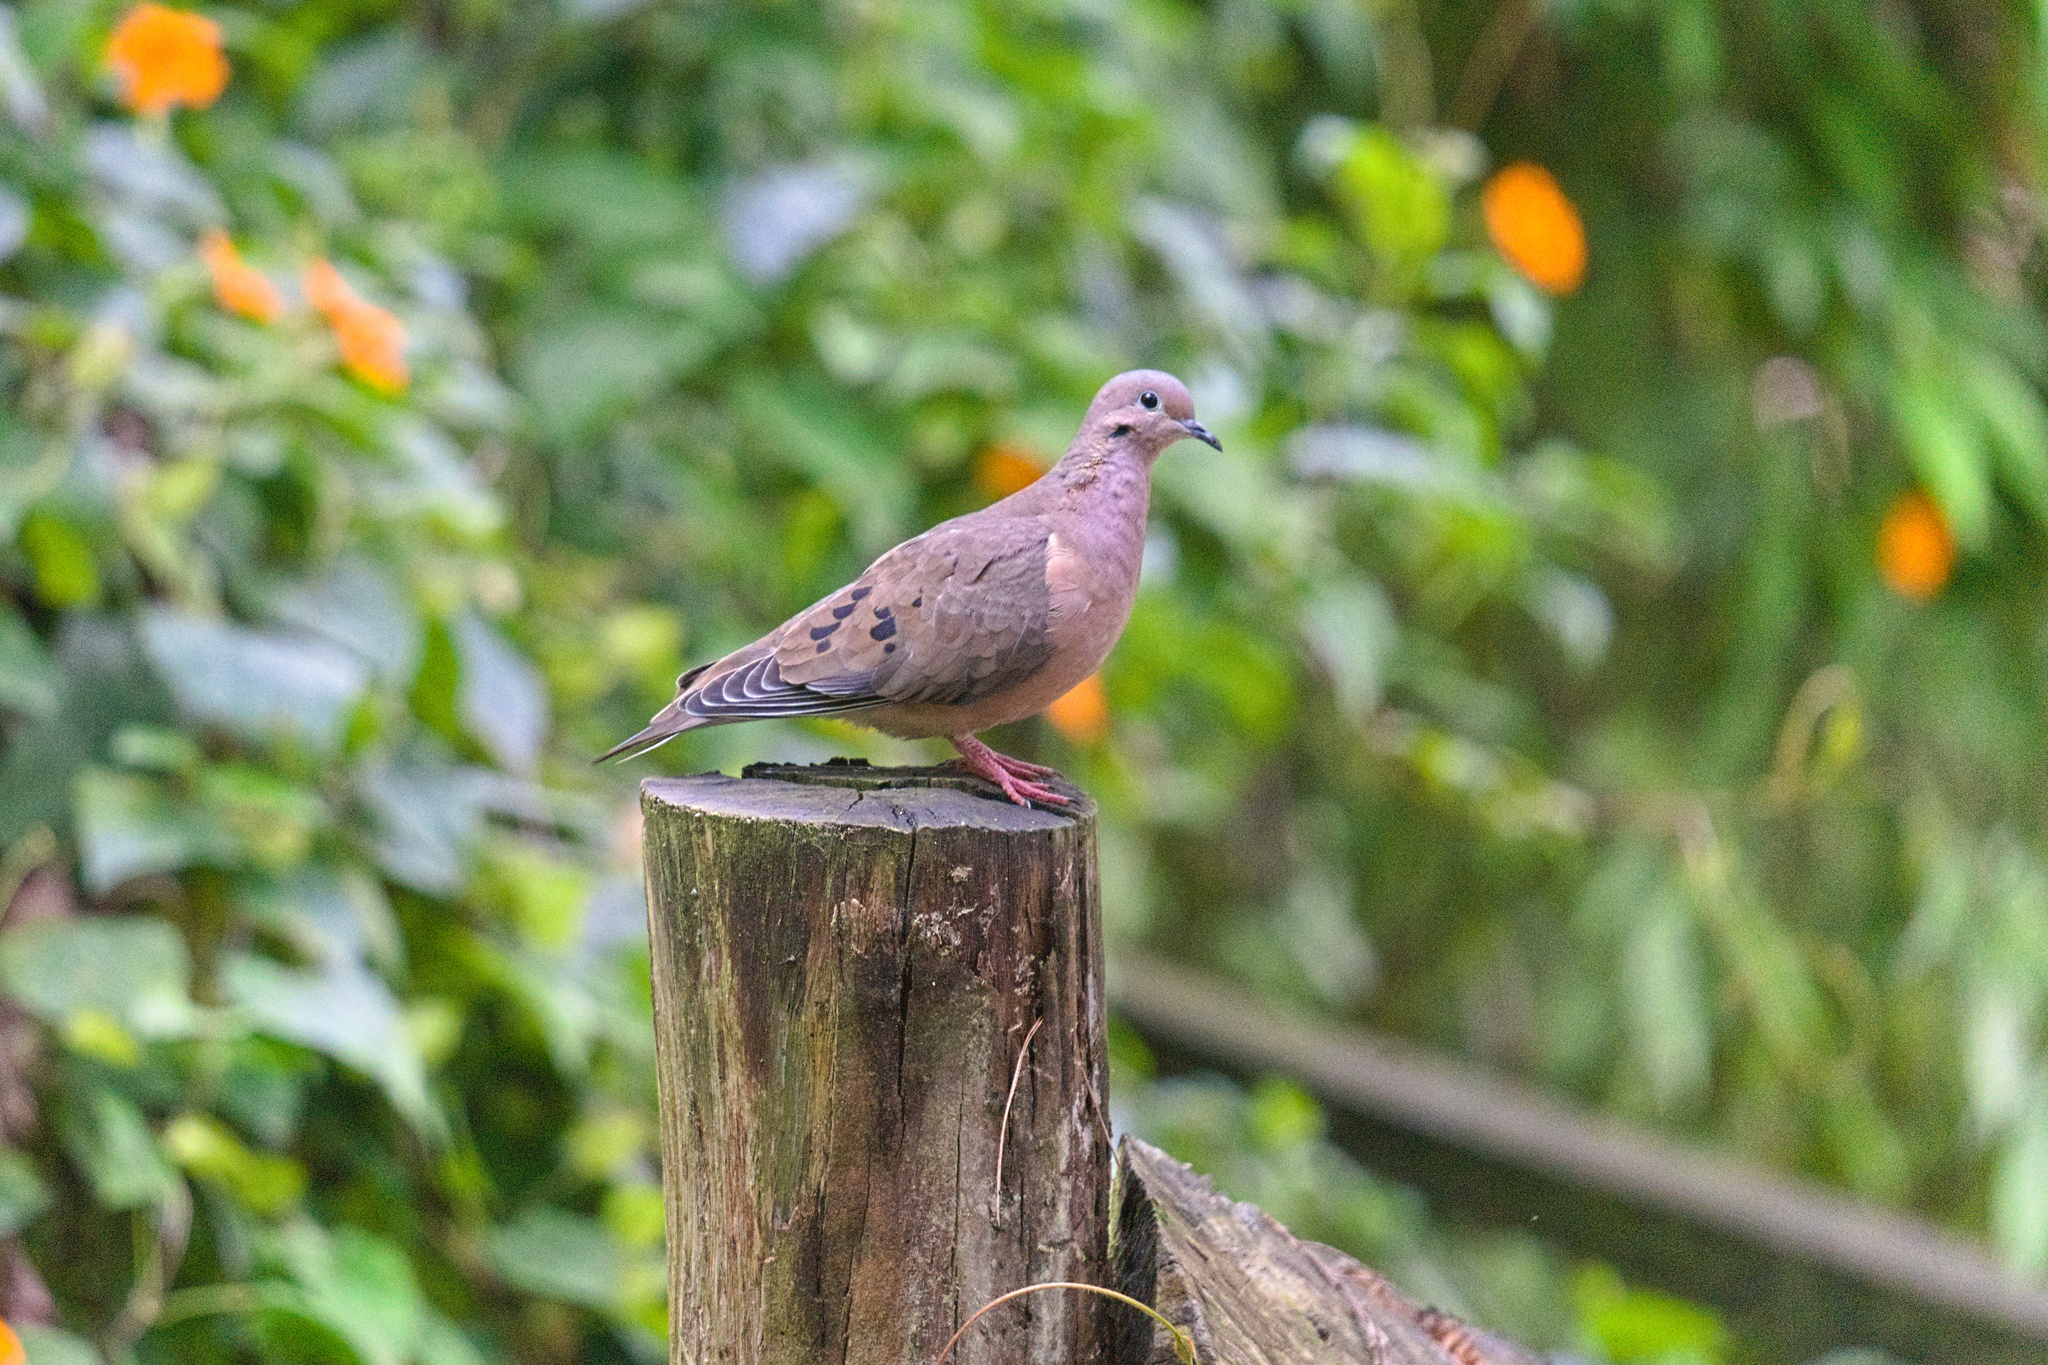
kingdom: Animalia
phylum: Chordata
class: Aves
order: Columbiformes
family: Columbidae
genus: Zenaida
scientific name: Zenaida auriculata
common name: Eared dove
